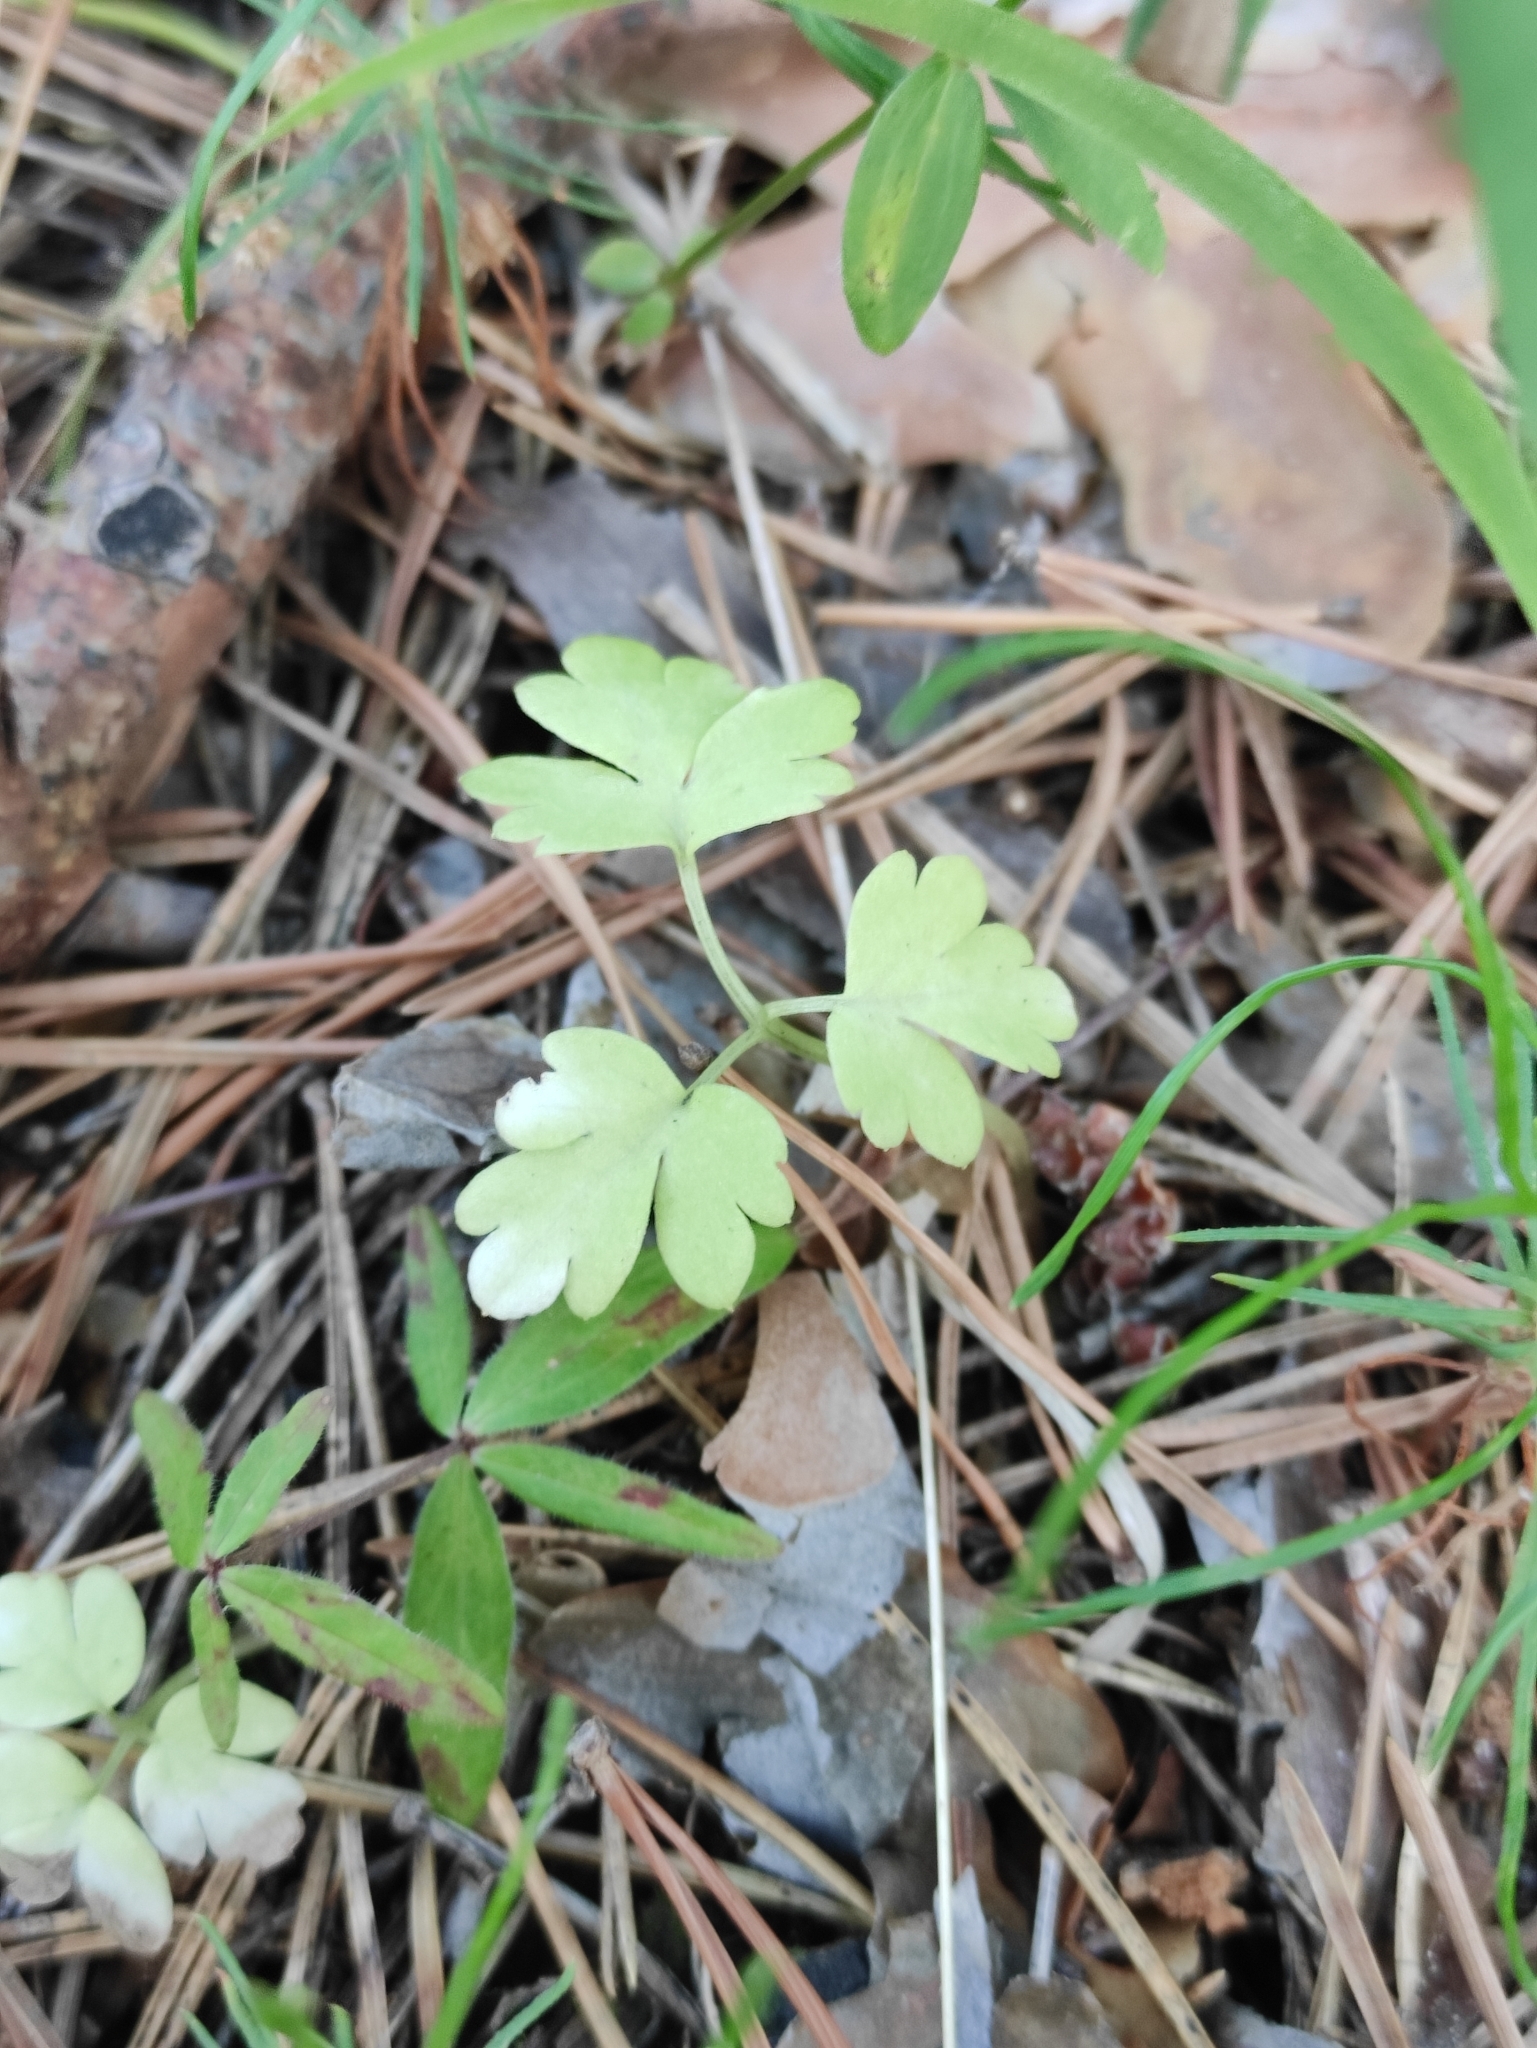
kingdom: Plantae
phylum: Tracheophyta
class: Magnoliopsida
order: Dipsacales
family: Viburnaceae
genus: Adoxa
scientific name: Adoxa moschatellina
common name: Moschatel
